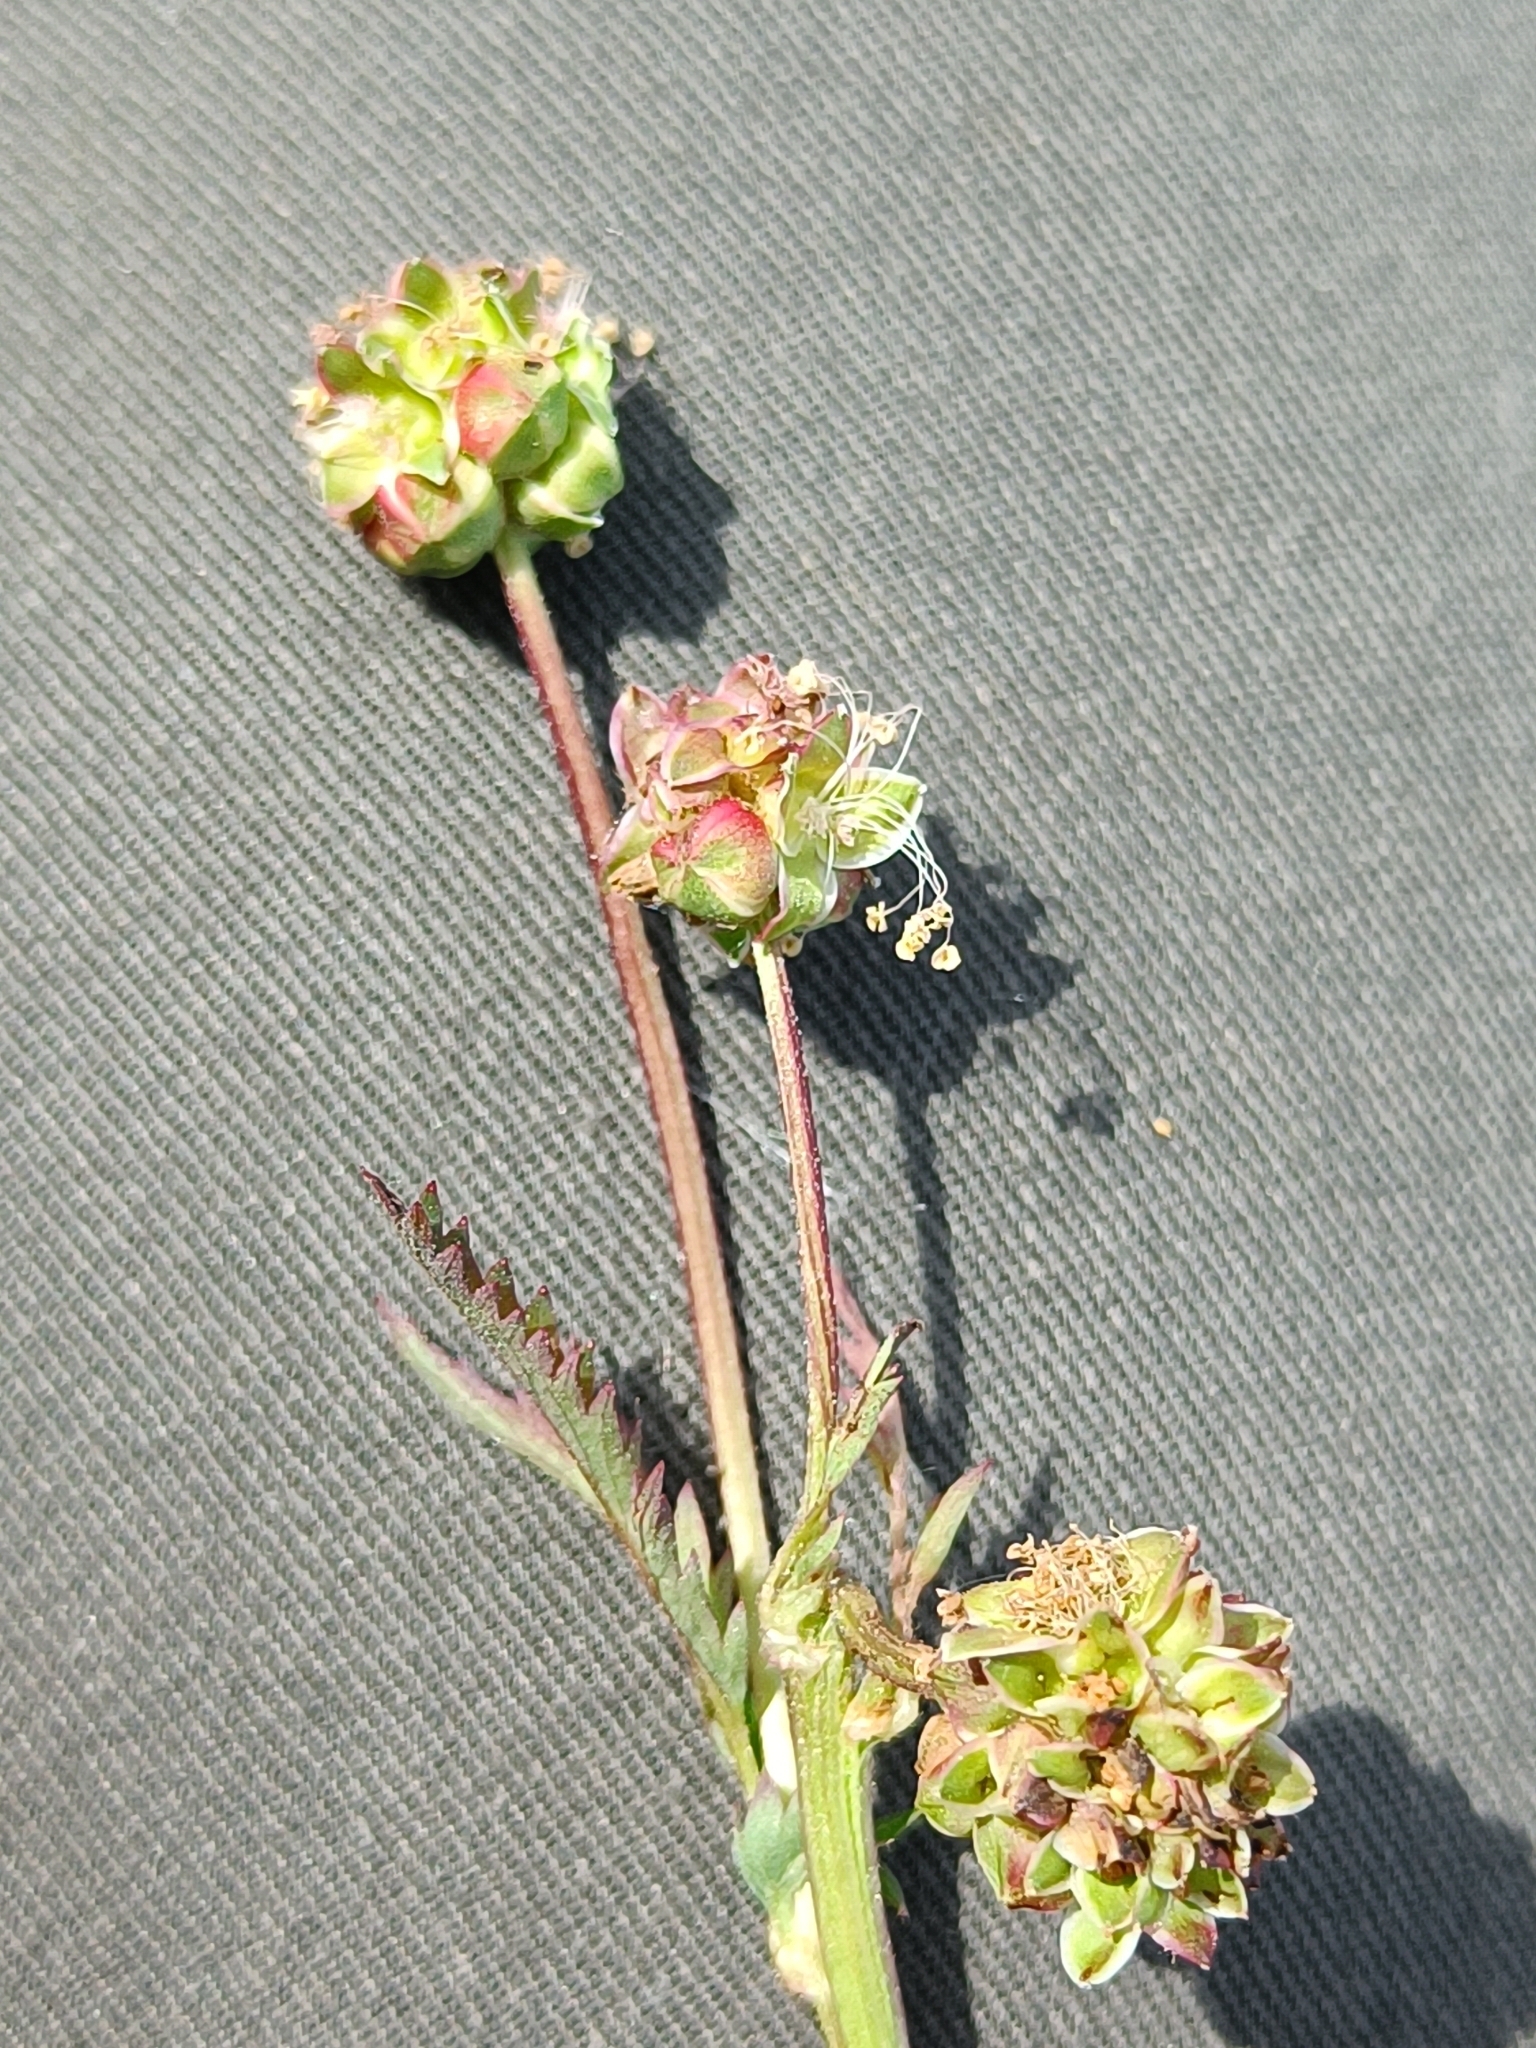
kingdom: Plantae
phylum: Tracheophyta
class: Magnoliopsida
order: Rosales
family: Rosaceae
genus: Poterium
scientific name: Poterium sanguisorba
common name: Salad burnet
